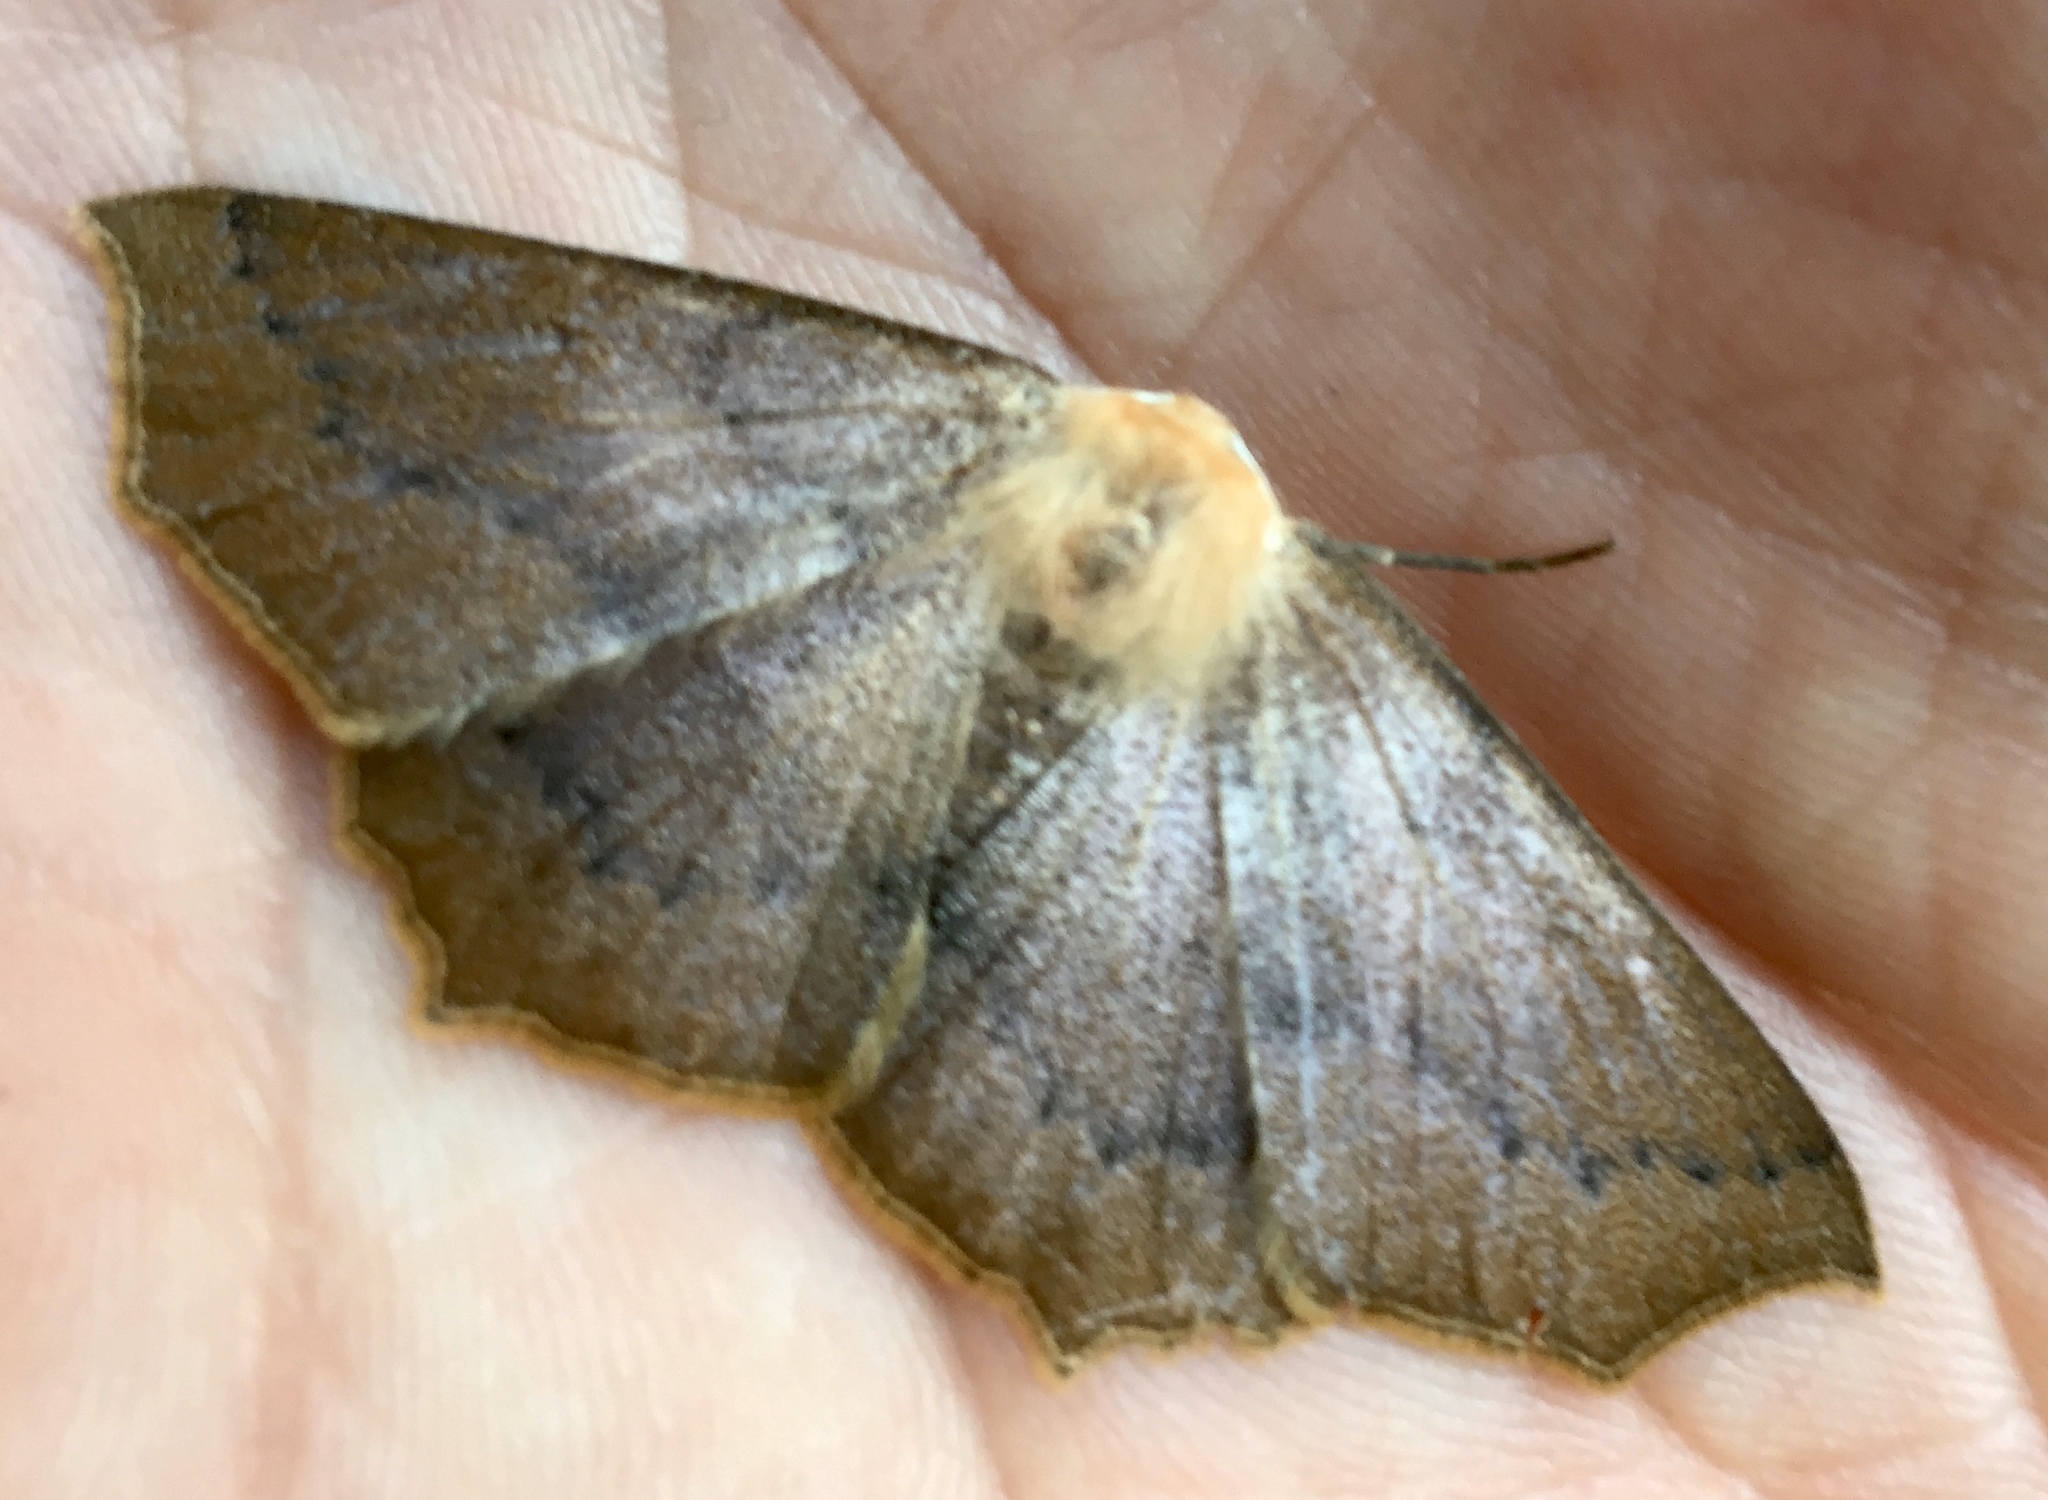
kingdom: Animalia
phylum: Arthropoda
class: Insecta
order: Lepidoptera
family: Geometridae
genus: Sabulodes
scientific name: Sabulodes aegrotata
